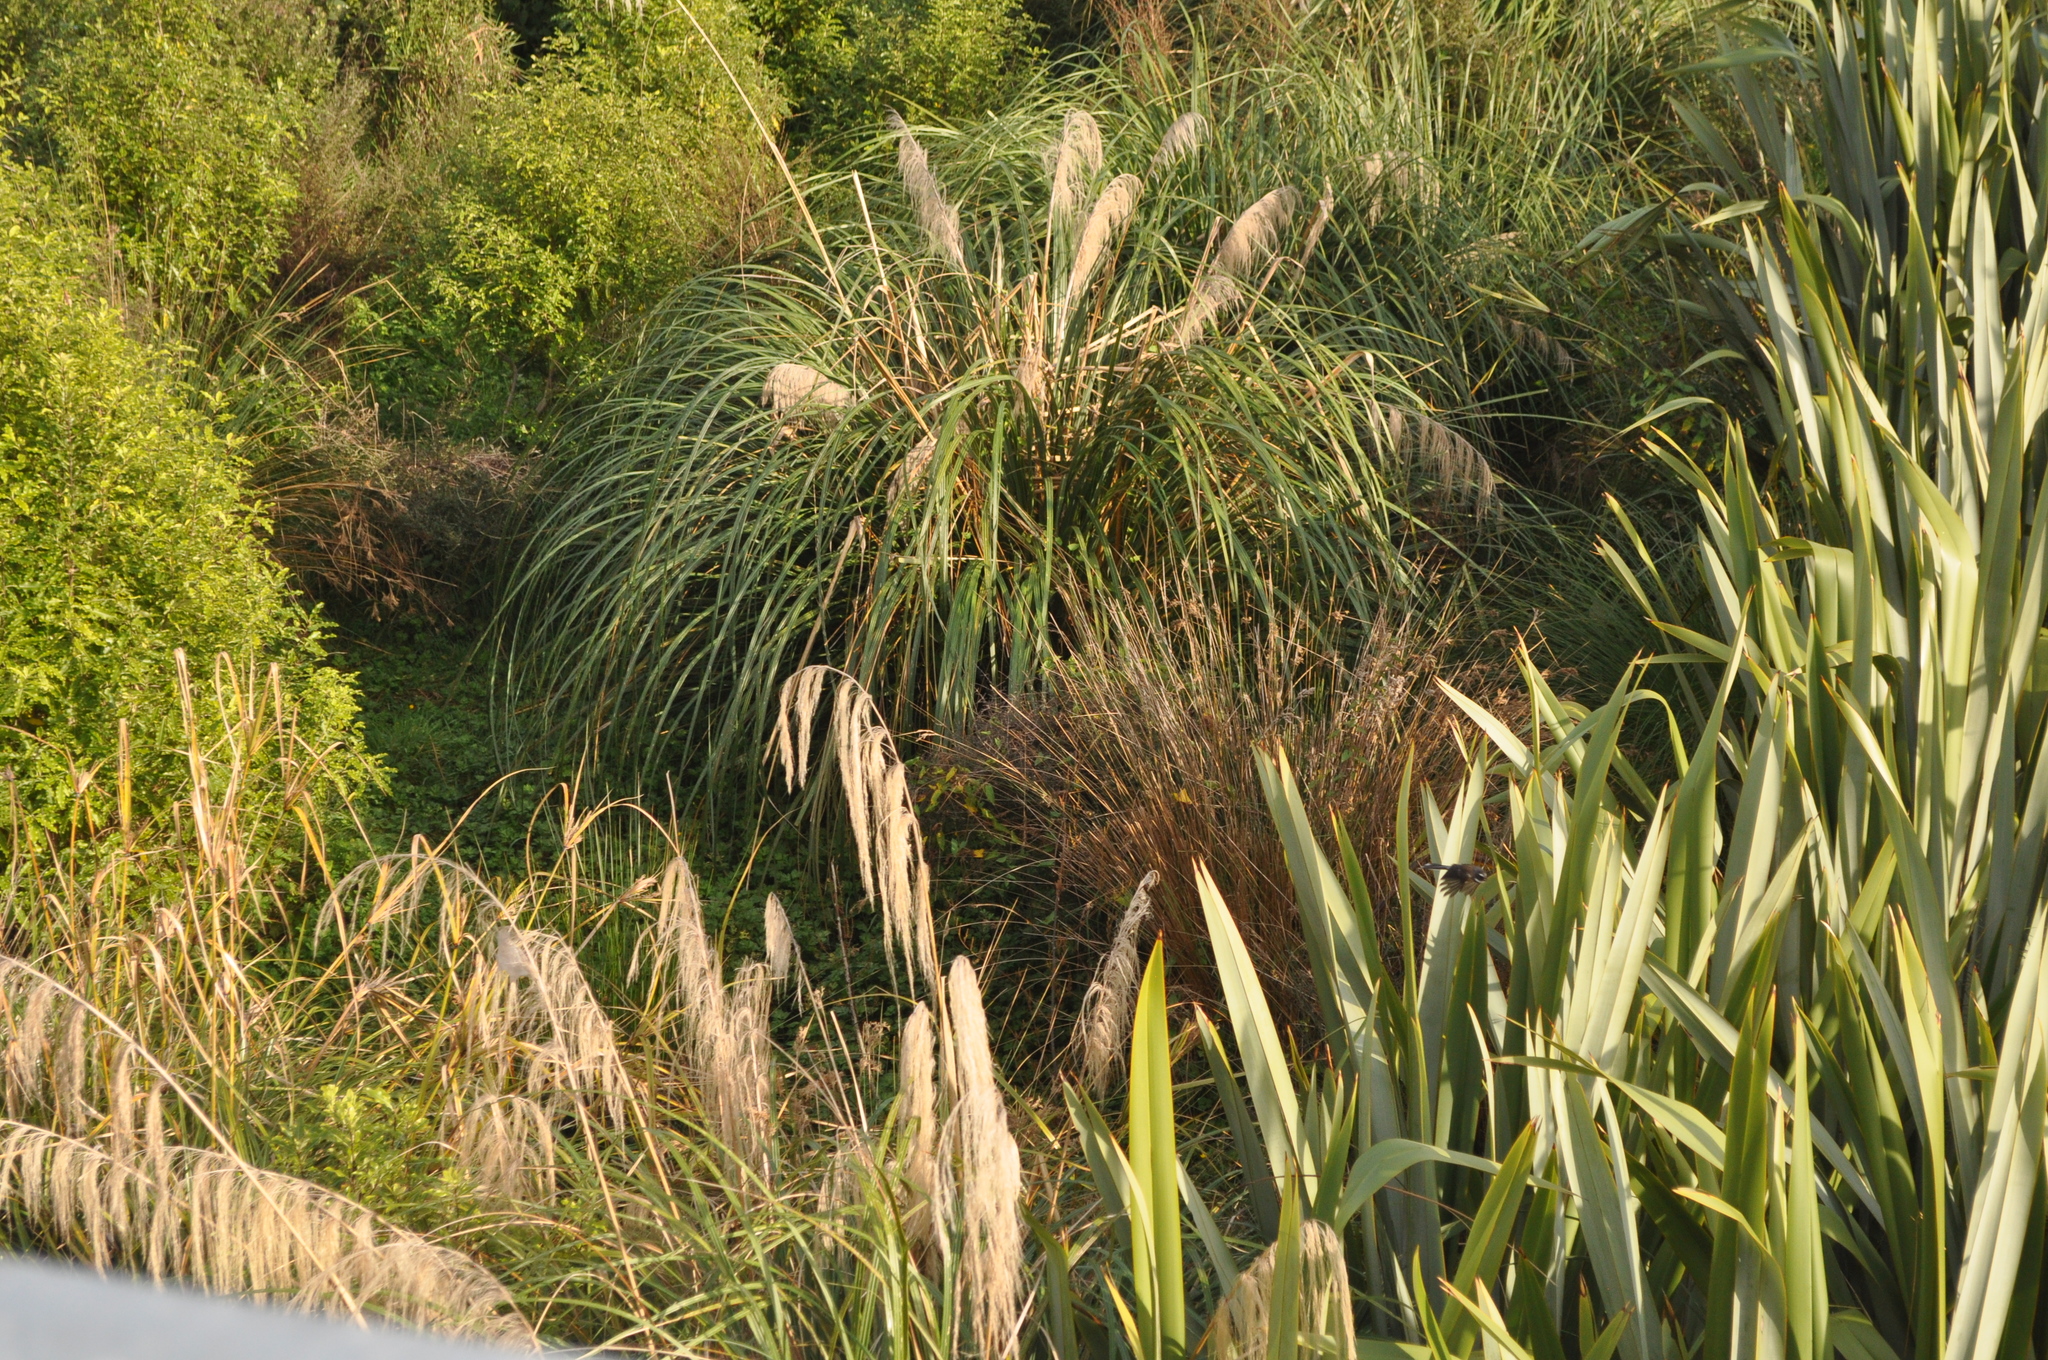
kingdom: Plantae
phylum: Tracheophyta
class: Liliopsida
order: Poales
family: Poaceae
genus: Austroderia
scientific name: Austroderia fulvida
